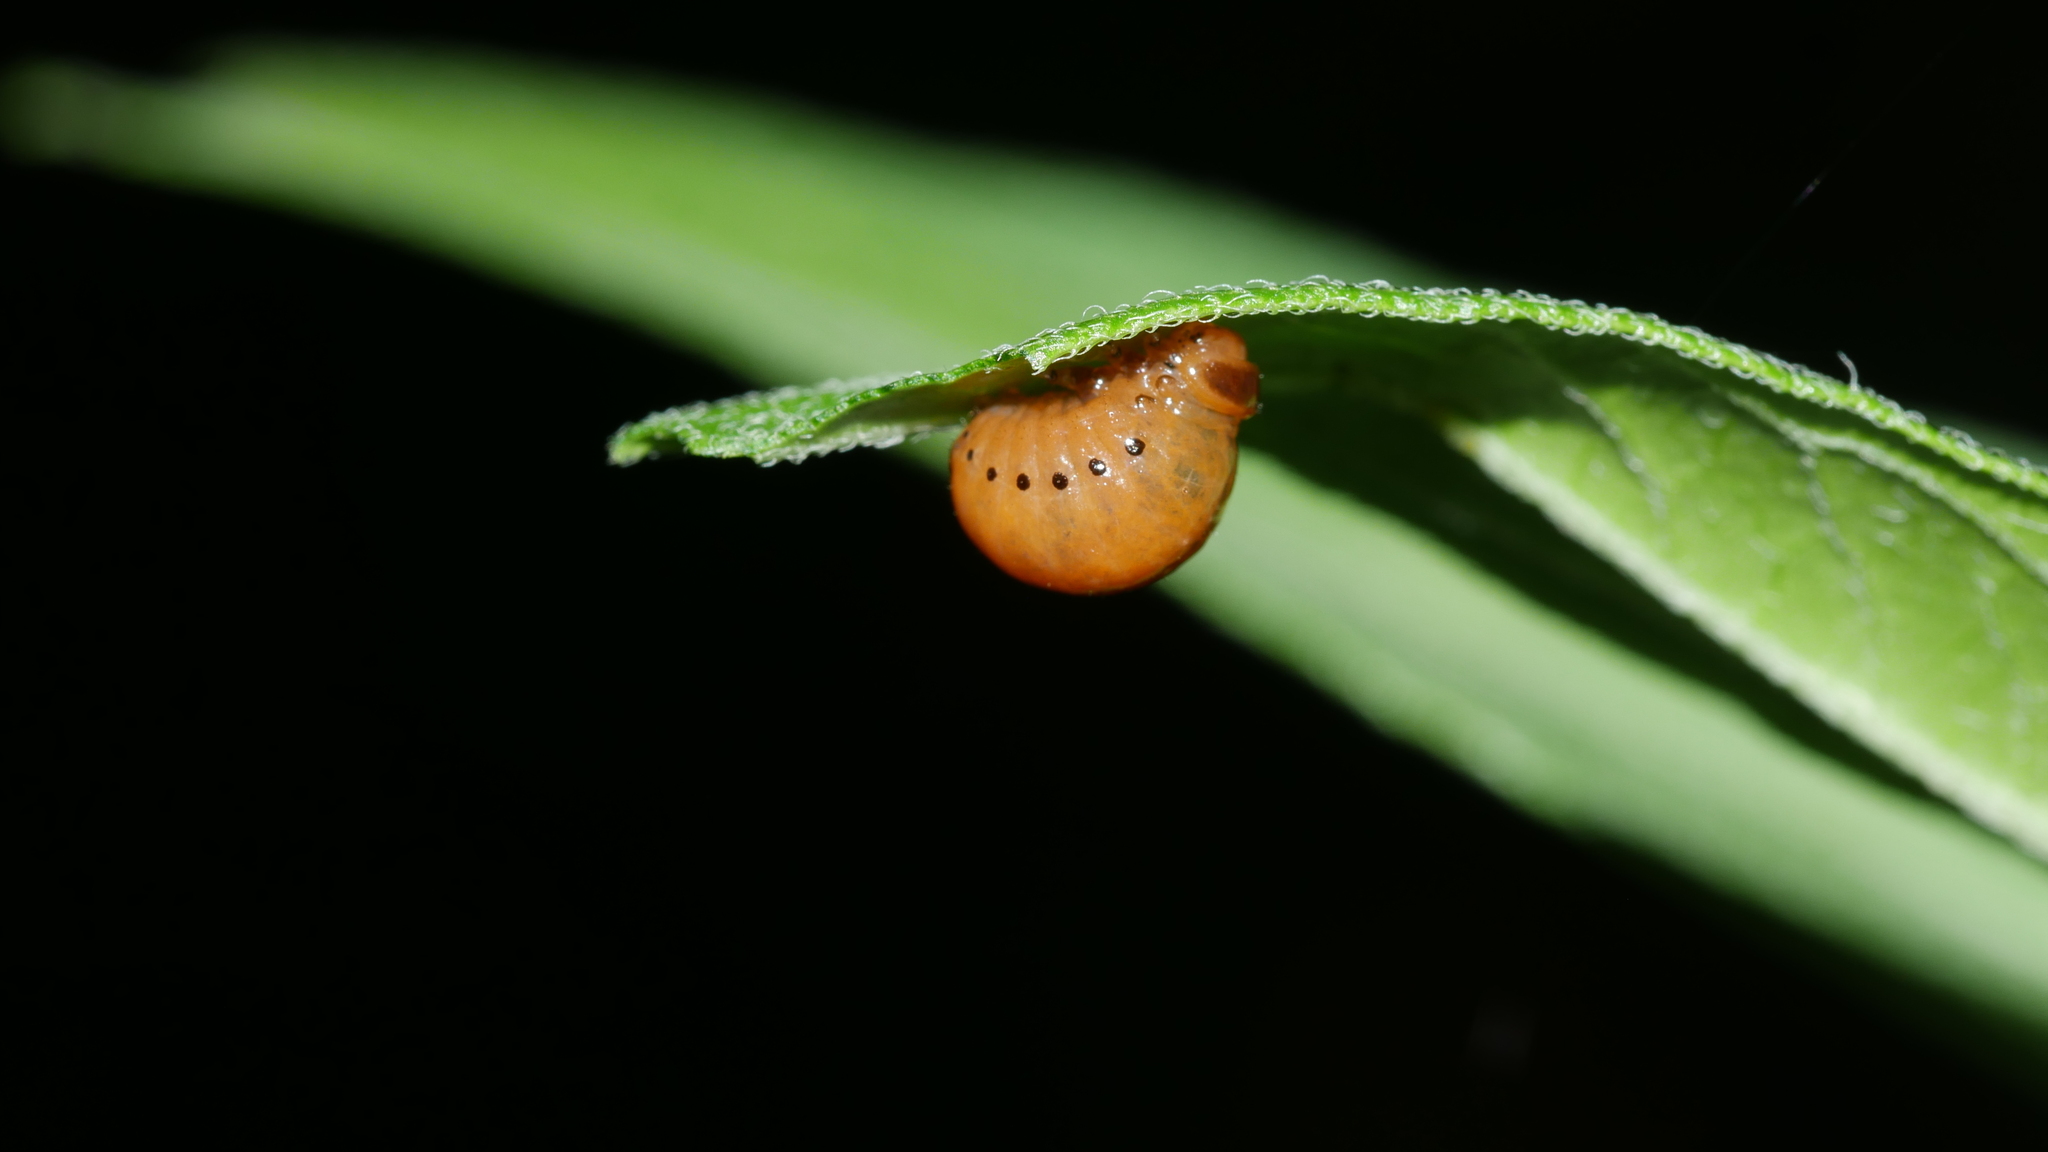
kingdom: Animalia
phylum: Arthropoda
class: Insecta
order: Coleoptera
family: Chrysomelidae
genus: Labidomera
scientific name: Labidomera clivicollis
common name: Swamp milkweed leaf beetle
